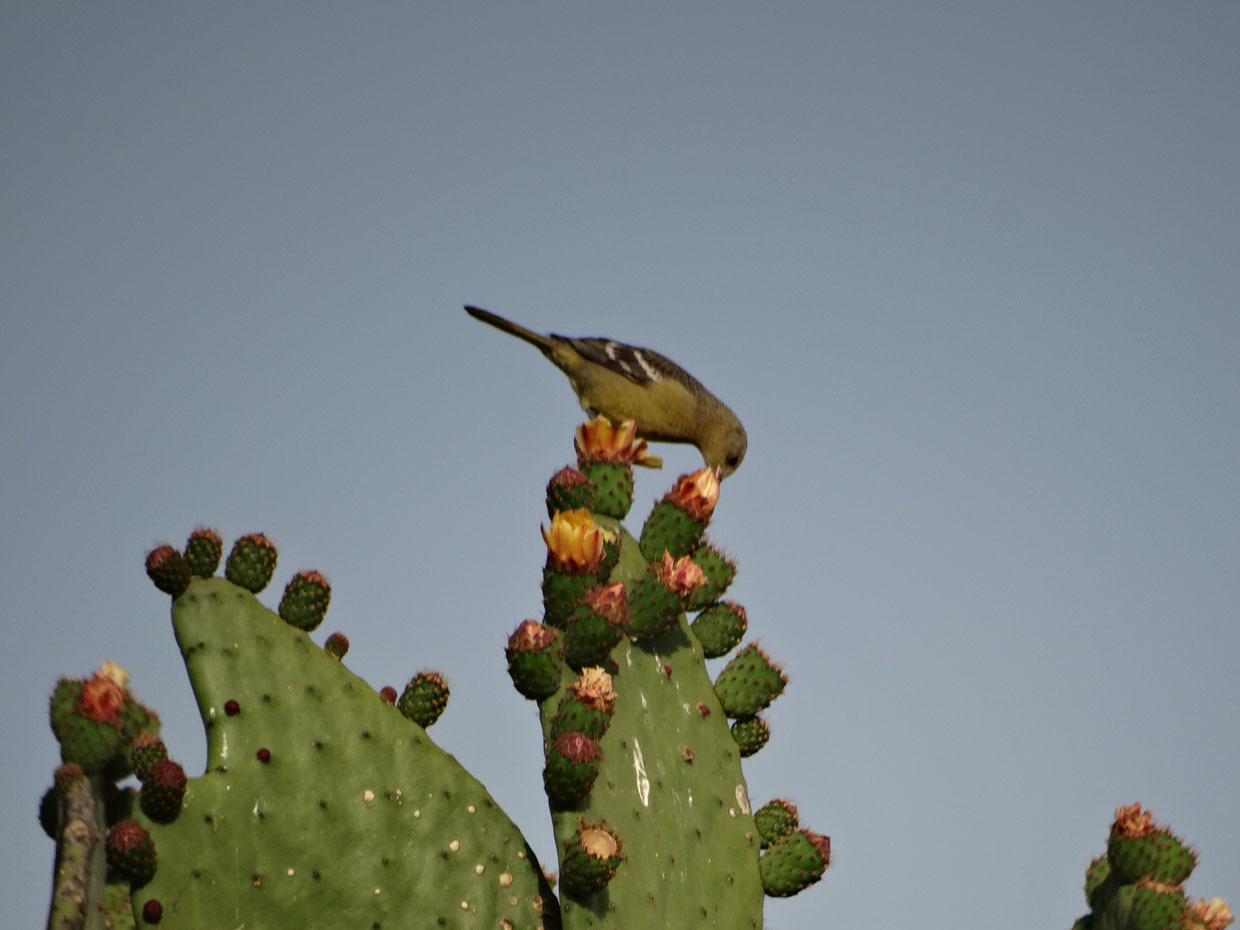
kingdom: Animalia
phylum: Chordata
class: Aves
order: Passeriformes
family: Cardinalidae
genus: Piranga
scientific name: Piranga ludoviciana
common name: Western tanager
